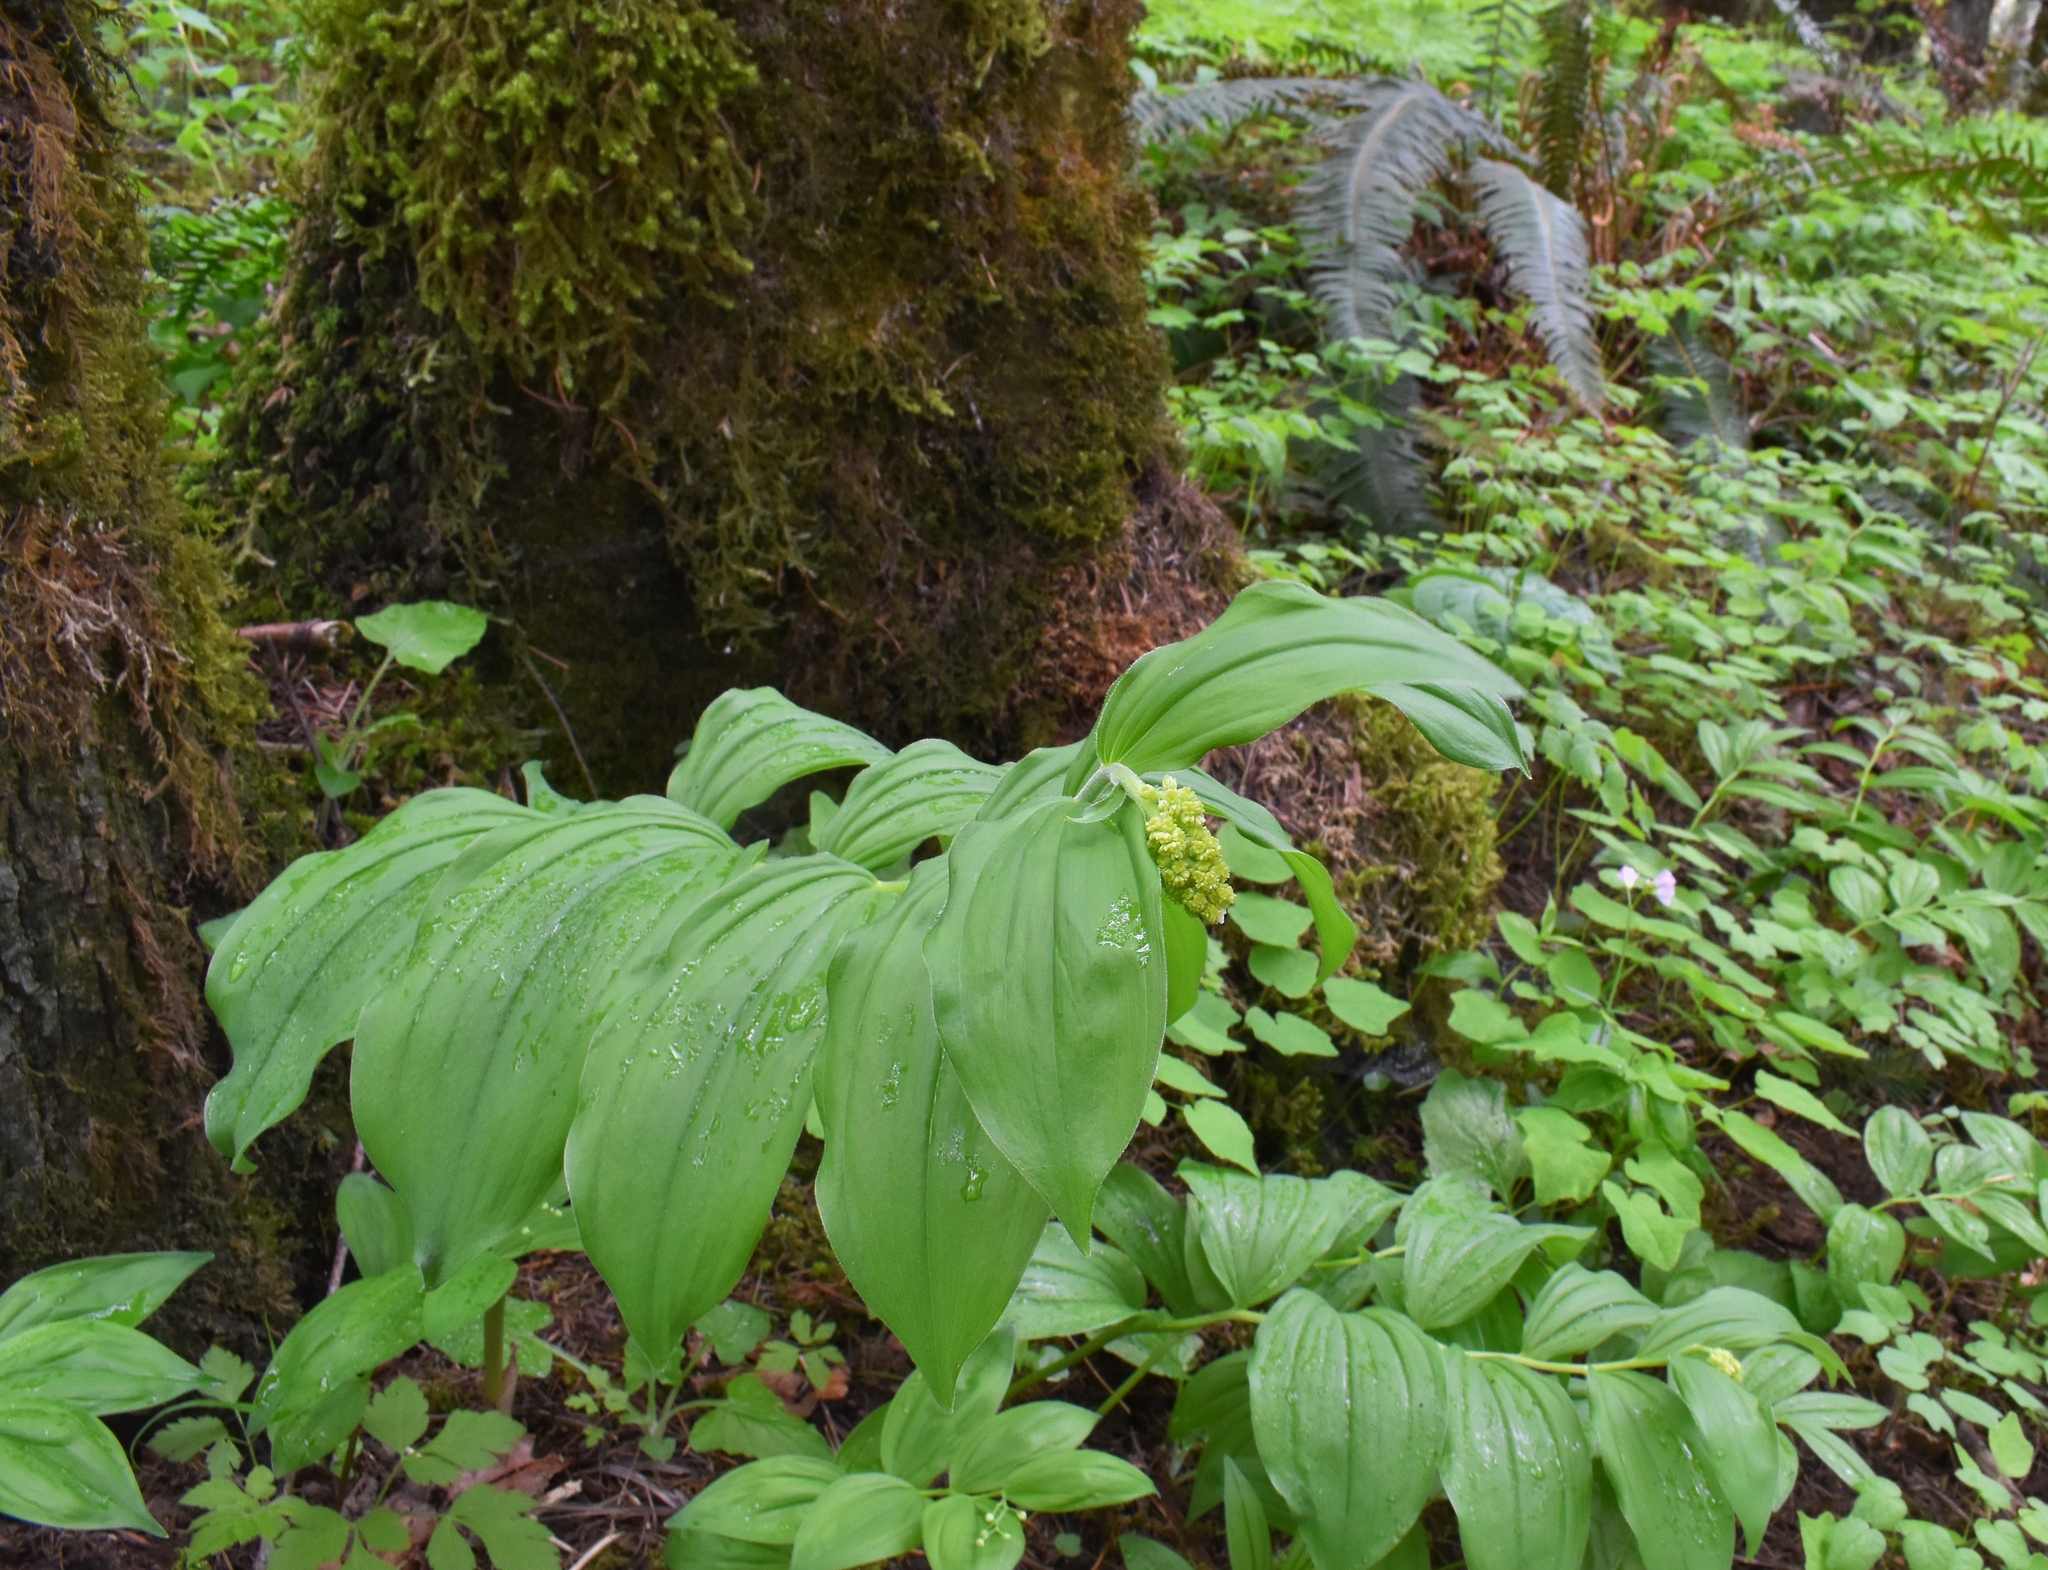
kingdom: Plantae
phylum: Tracheophyta
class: Liliopsida
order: Asparagales
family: Asparagaceae
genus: Maianthemum
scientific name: Maianthemum racemosum
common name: False spikenard
